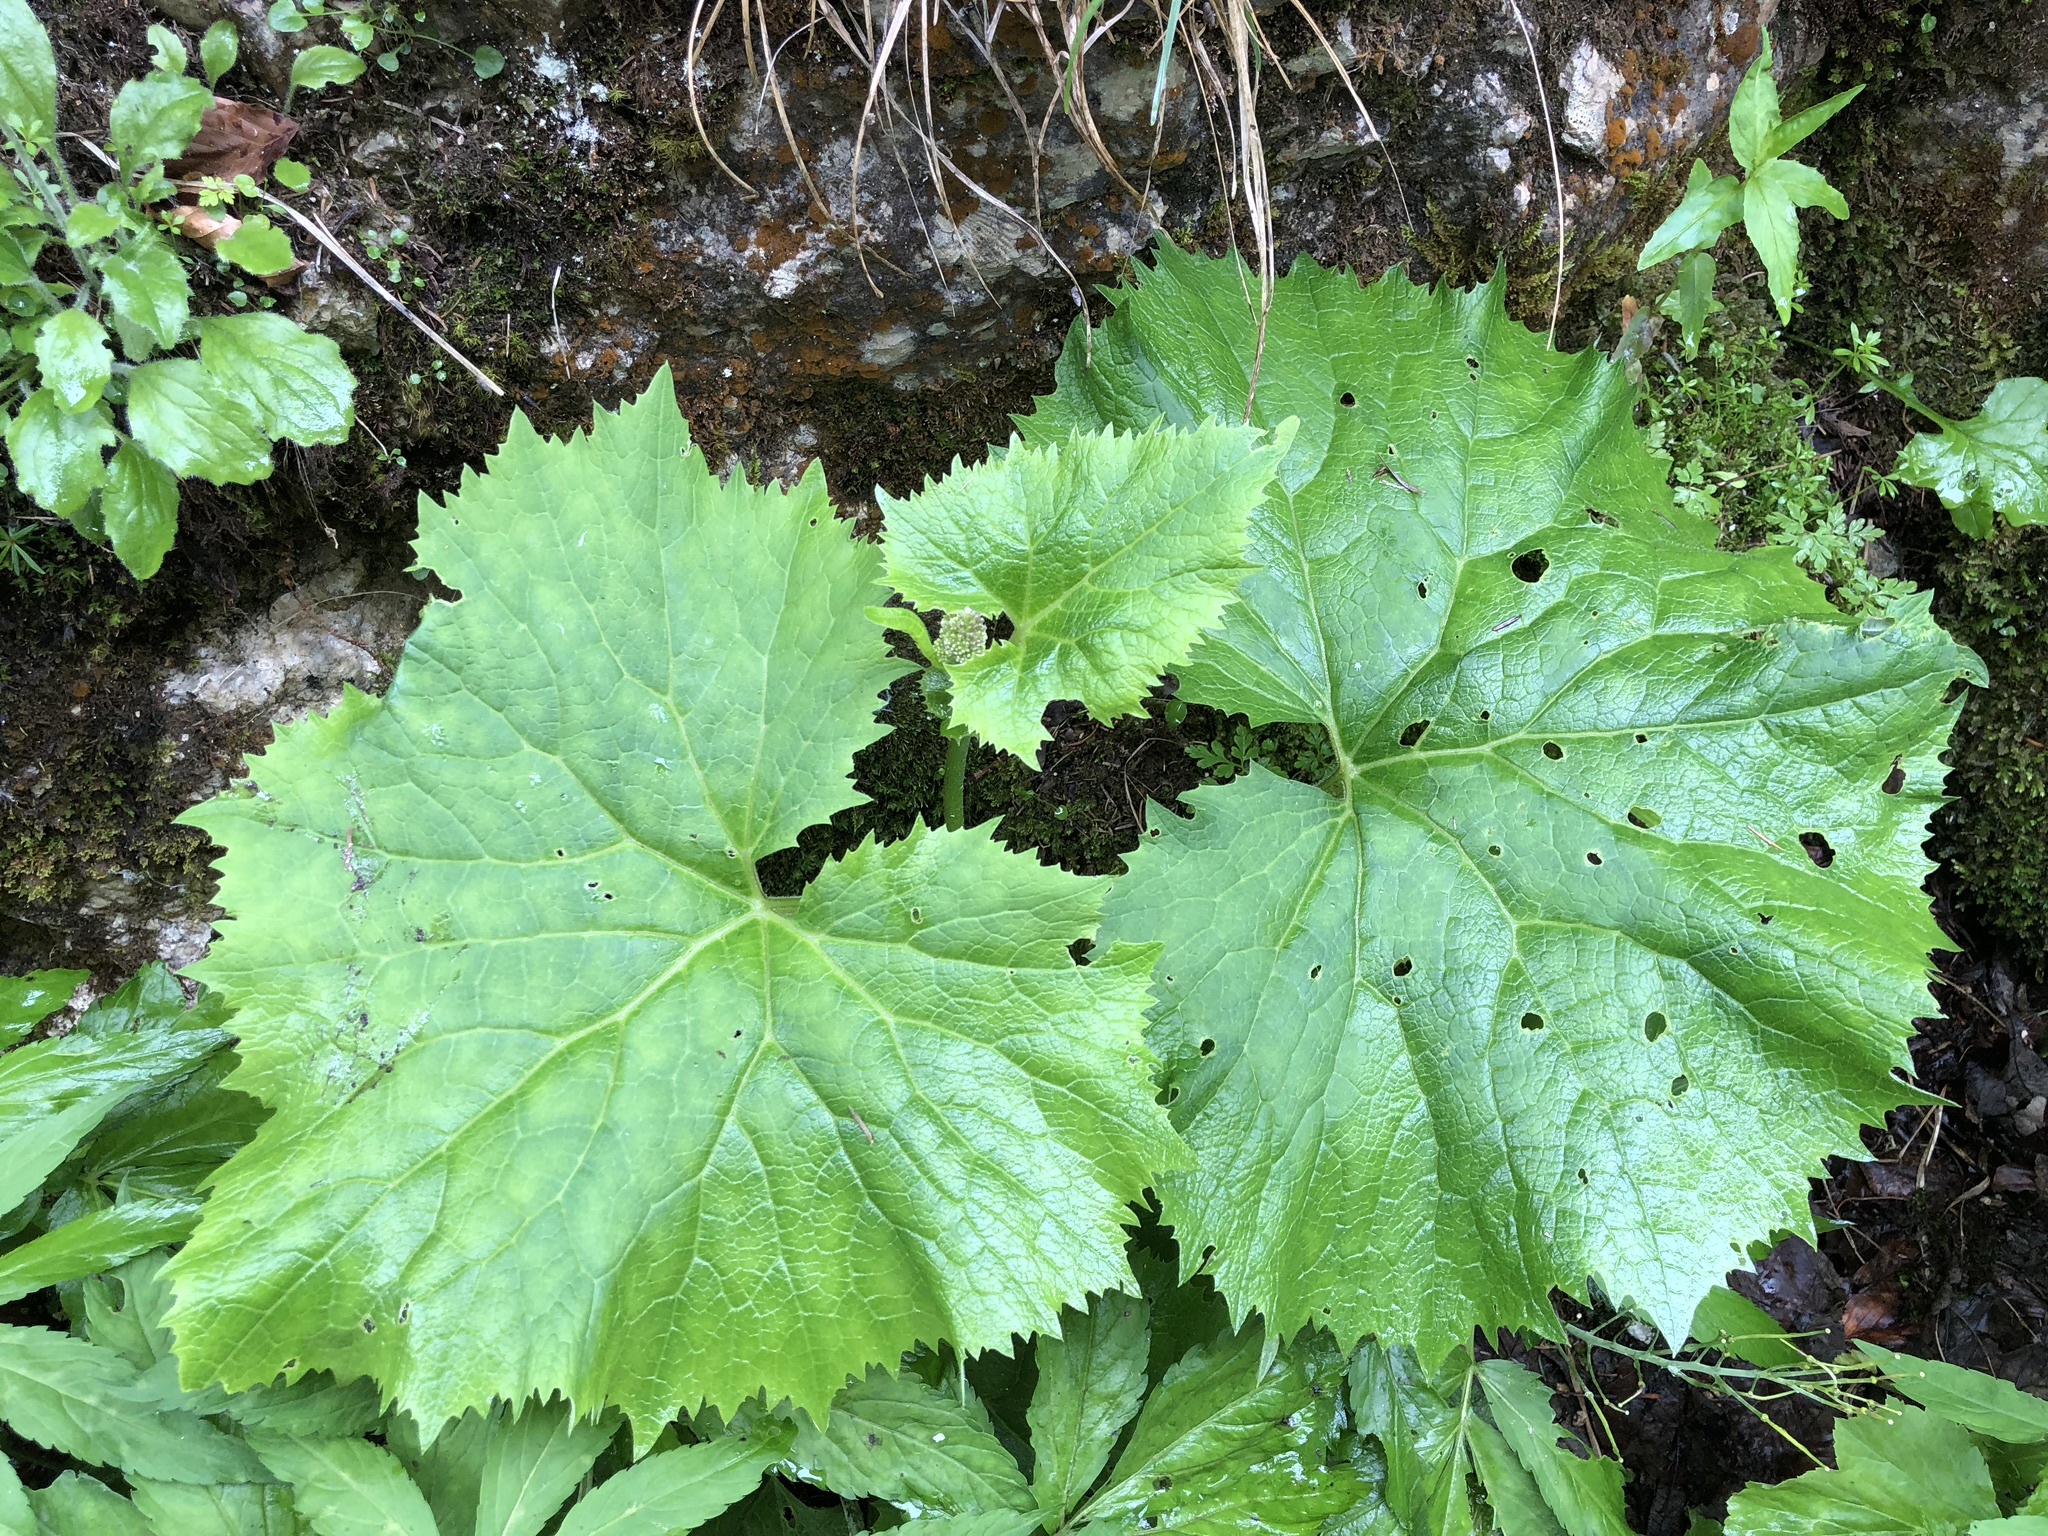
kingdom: Plantae
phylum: Tracheophyta
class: Magnoliopsida
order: Asterales
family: Asteraceae
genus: Adenostyles
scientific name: Adenostyles alliariae
